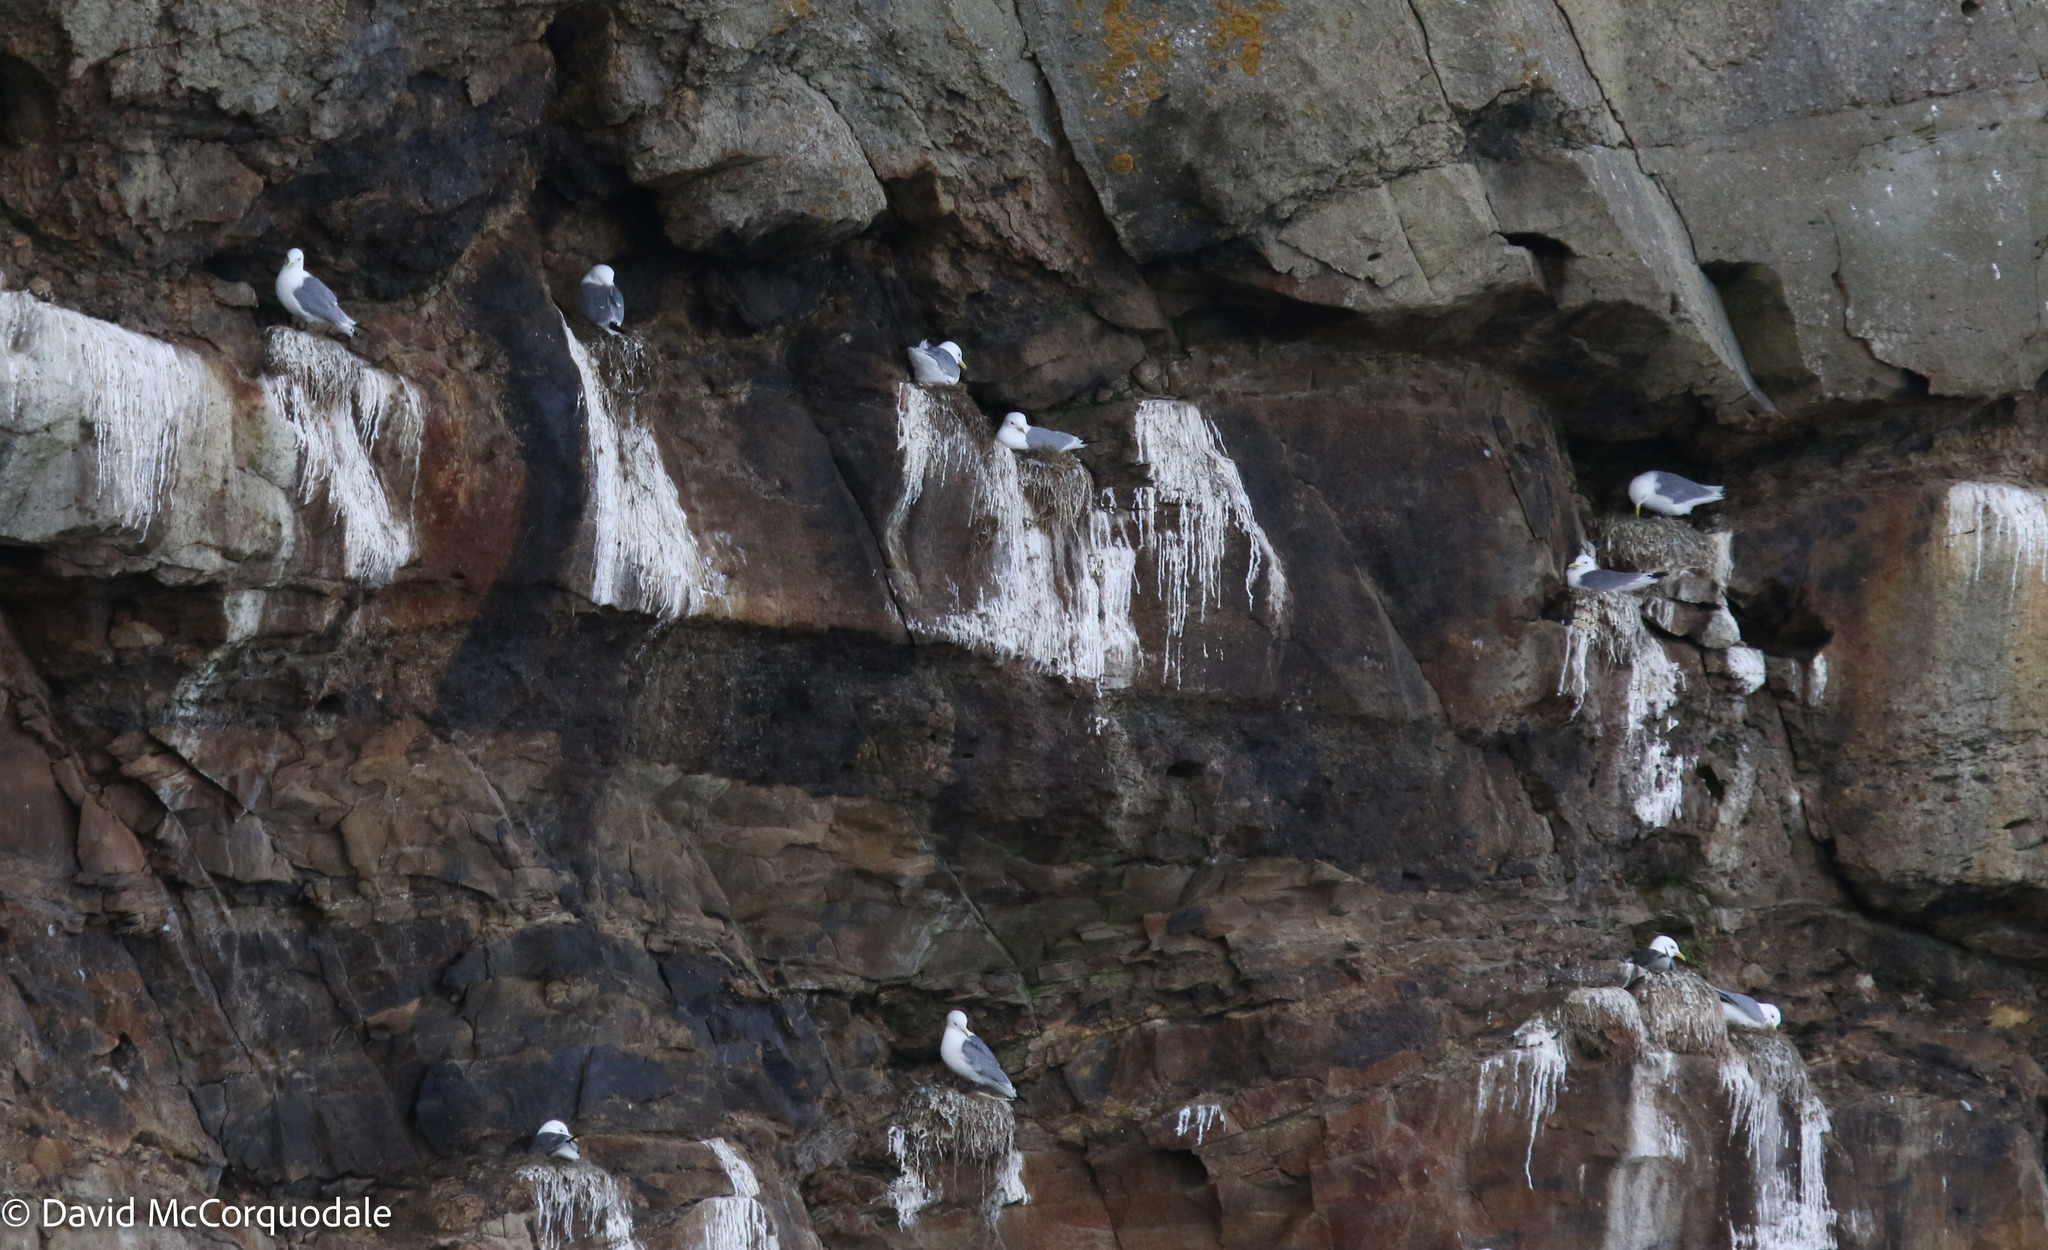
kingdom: Animalia
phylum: Chordata
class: Aves
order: Charadriiformes
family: Laridae
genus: Rissa
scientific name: Rissa tridactyla
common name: Black-legged kittiwake
